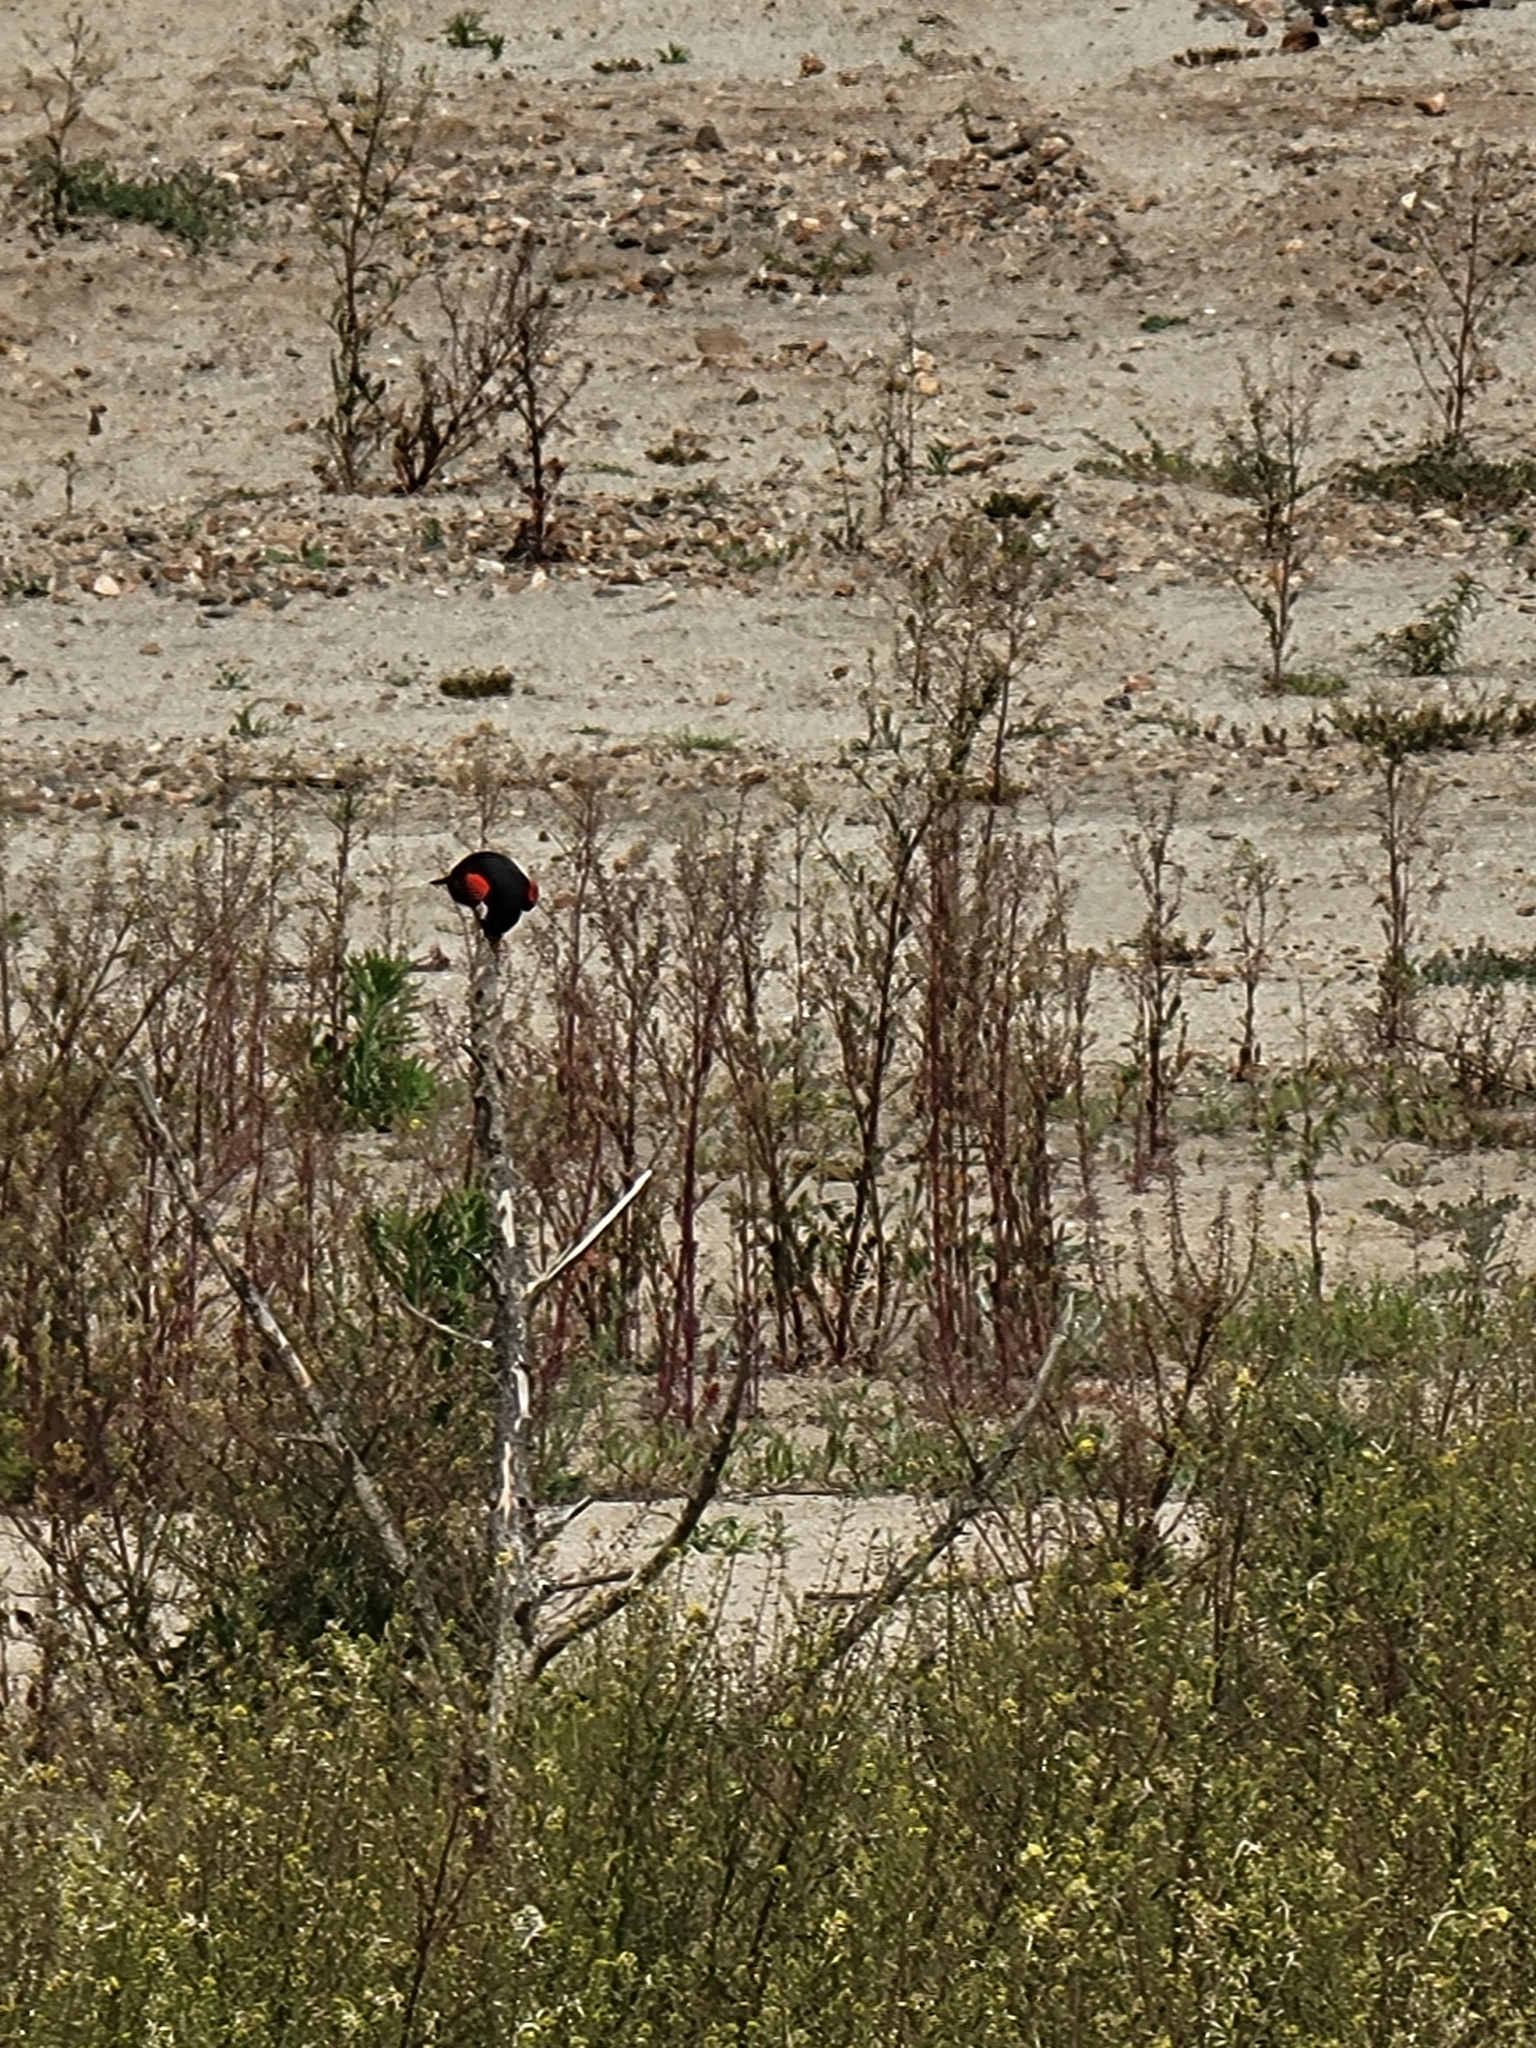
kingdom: Animalia
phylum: Chordata
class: Aves
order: Passeriformes
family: Icteridae
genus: Agelaius
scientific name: Agelaius phoeniceus
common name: Red-winged blackbird
